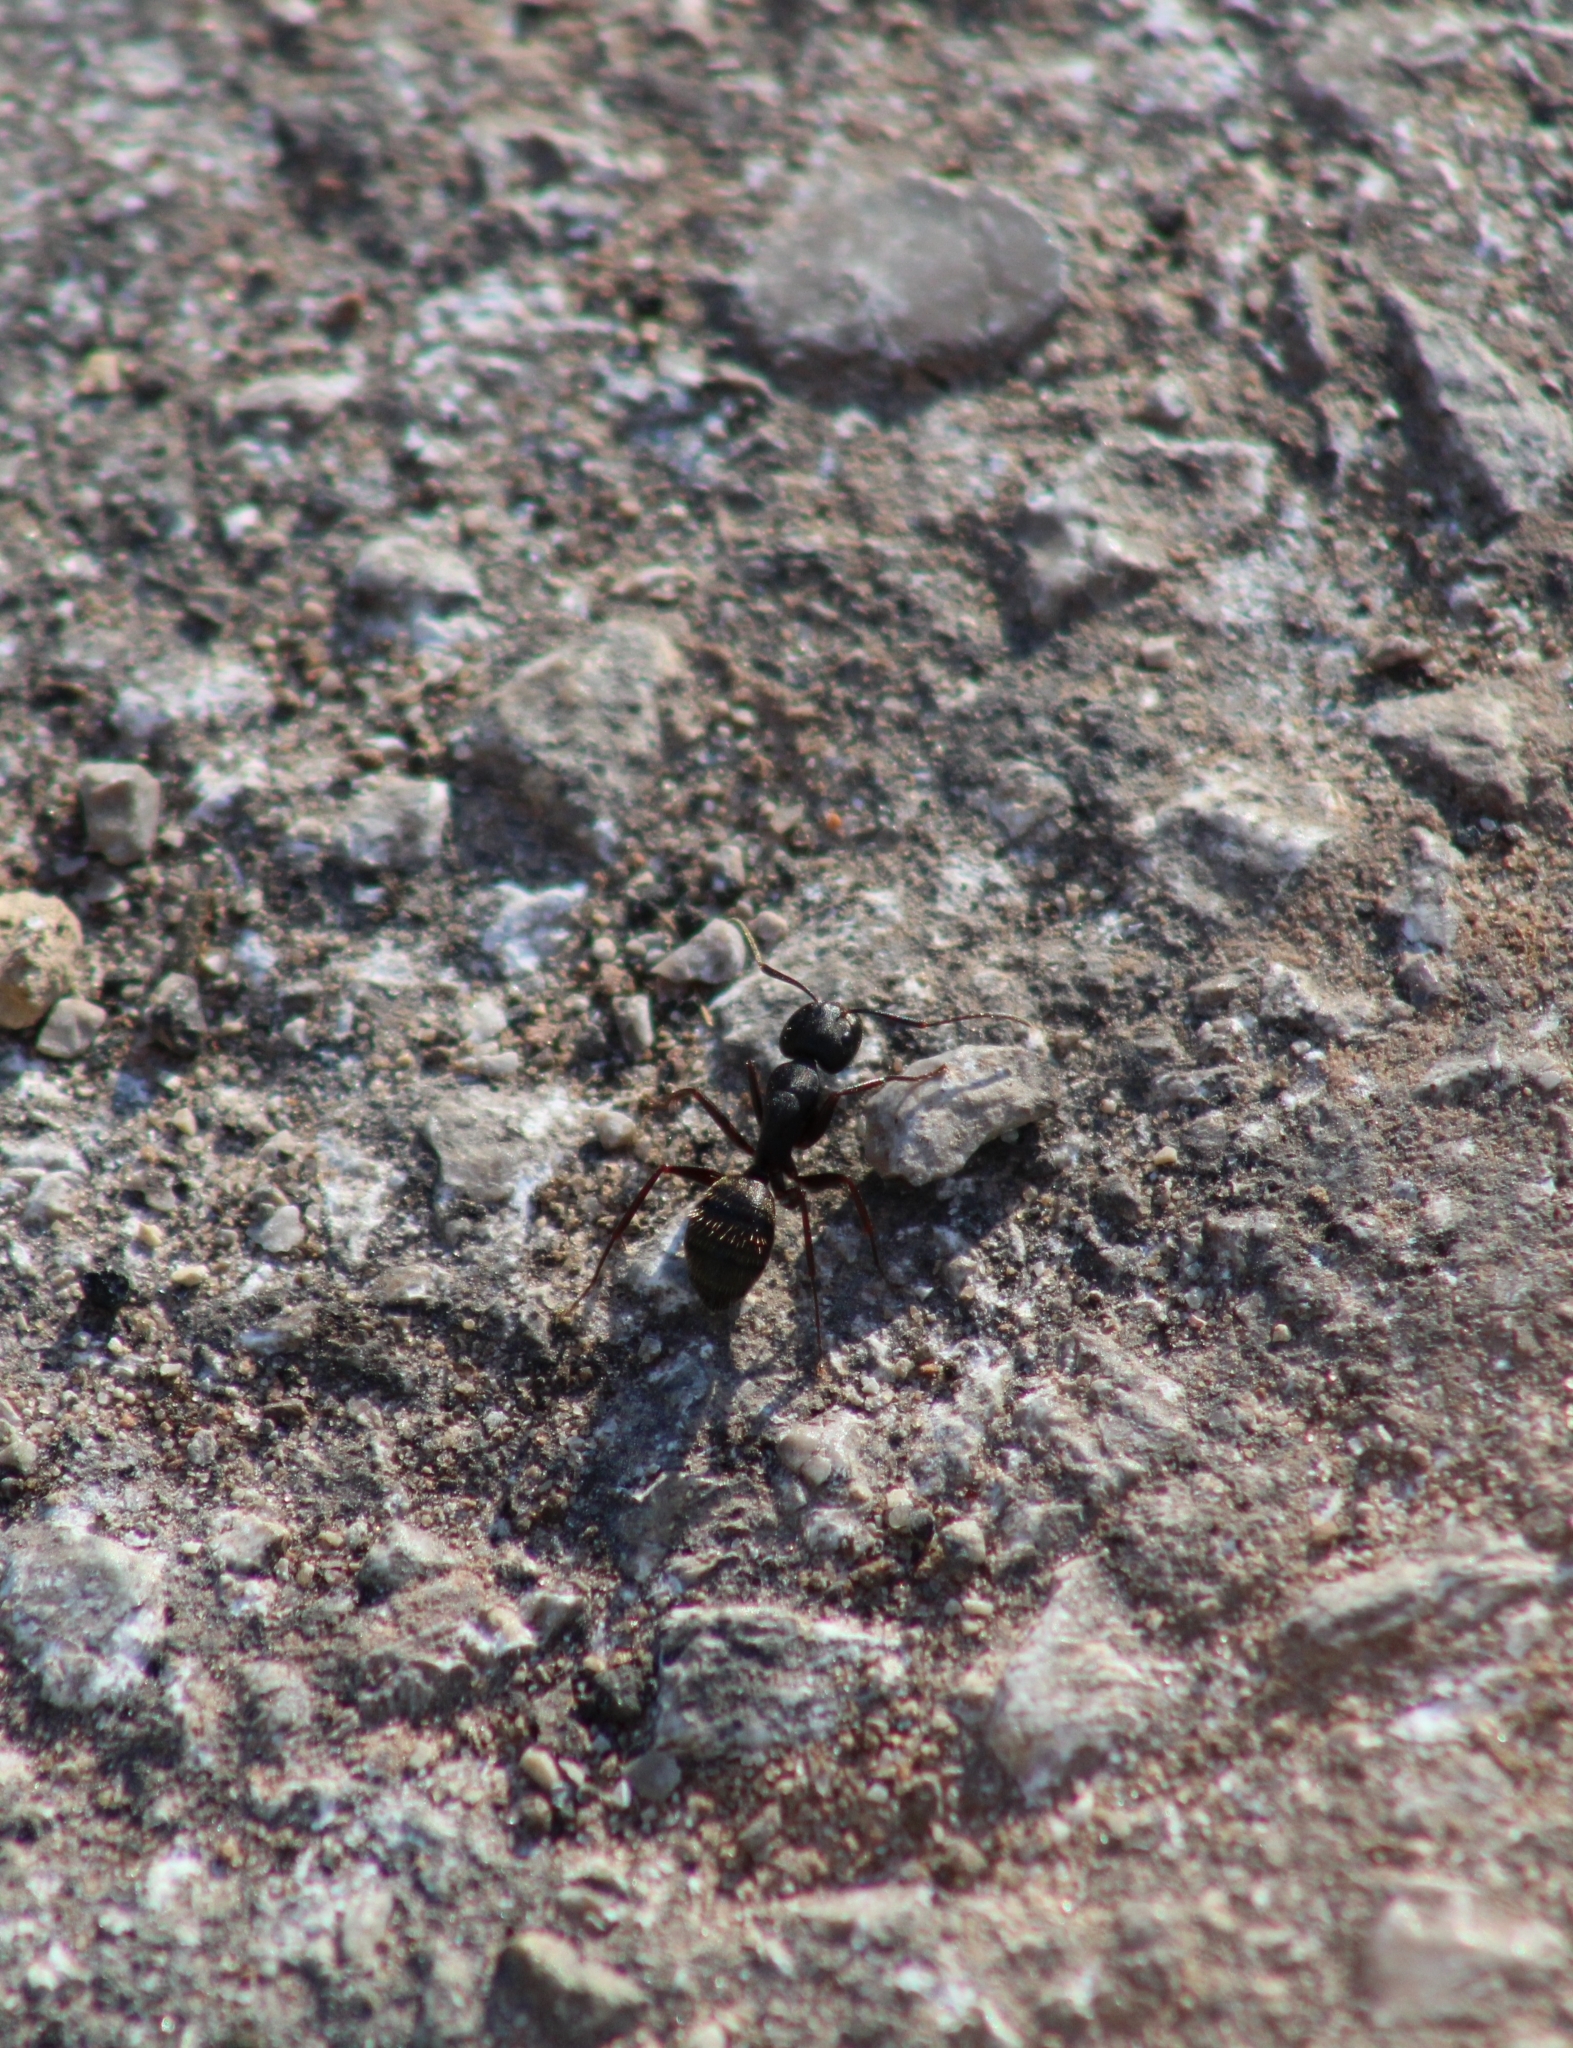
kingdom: Animalia
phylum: Arthropoda
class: Insecta
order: Hymenoptera
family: Formicidae
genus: Camponotus
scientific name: Camponotus pennsylvanicus
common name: Black carpenter ant
